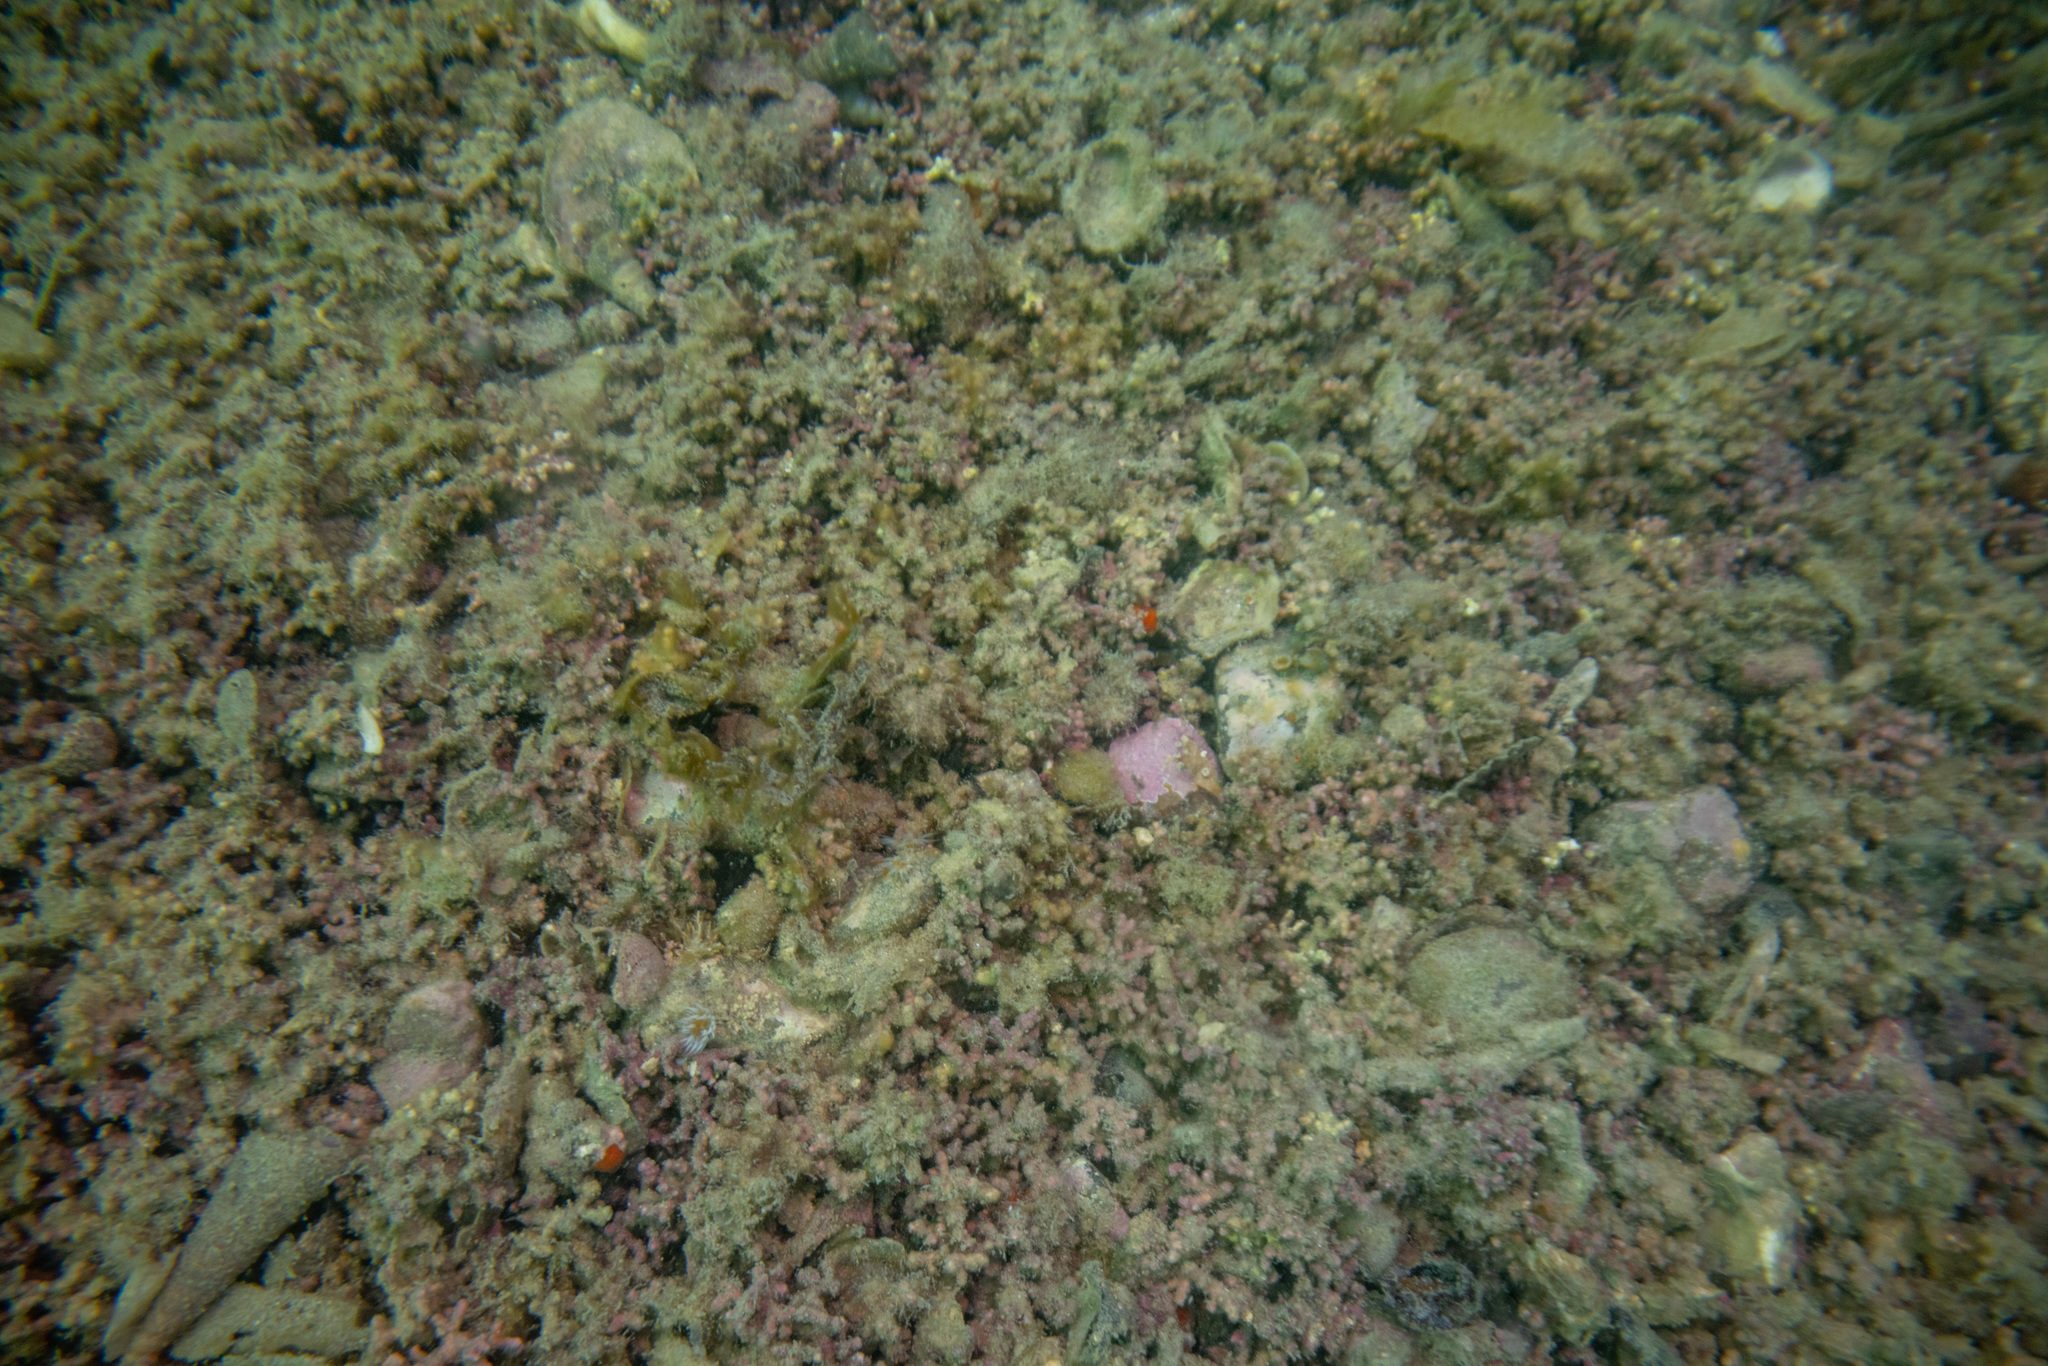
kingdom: Plantae
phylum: Rhodophyta
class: Florideophyceae
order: Corallinales
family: Sporolithaceae
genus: Sporolithon
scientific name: Sporolithon durum
